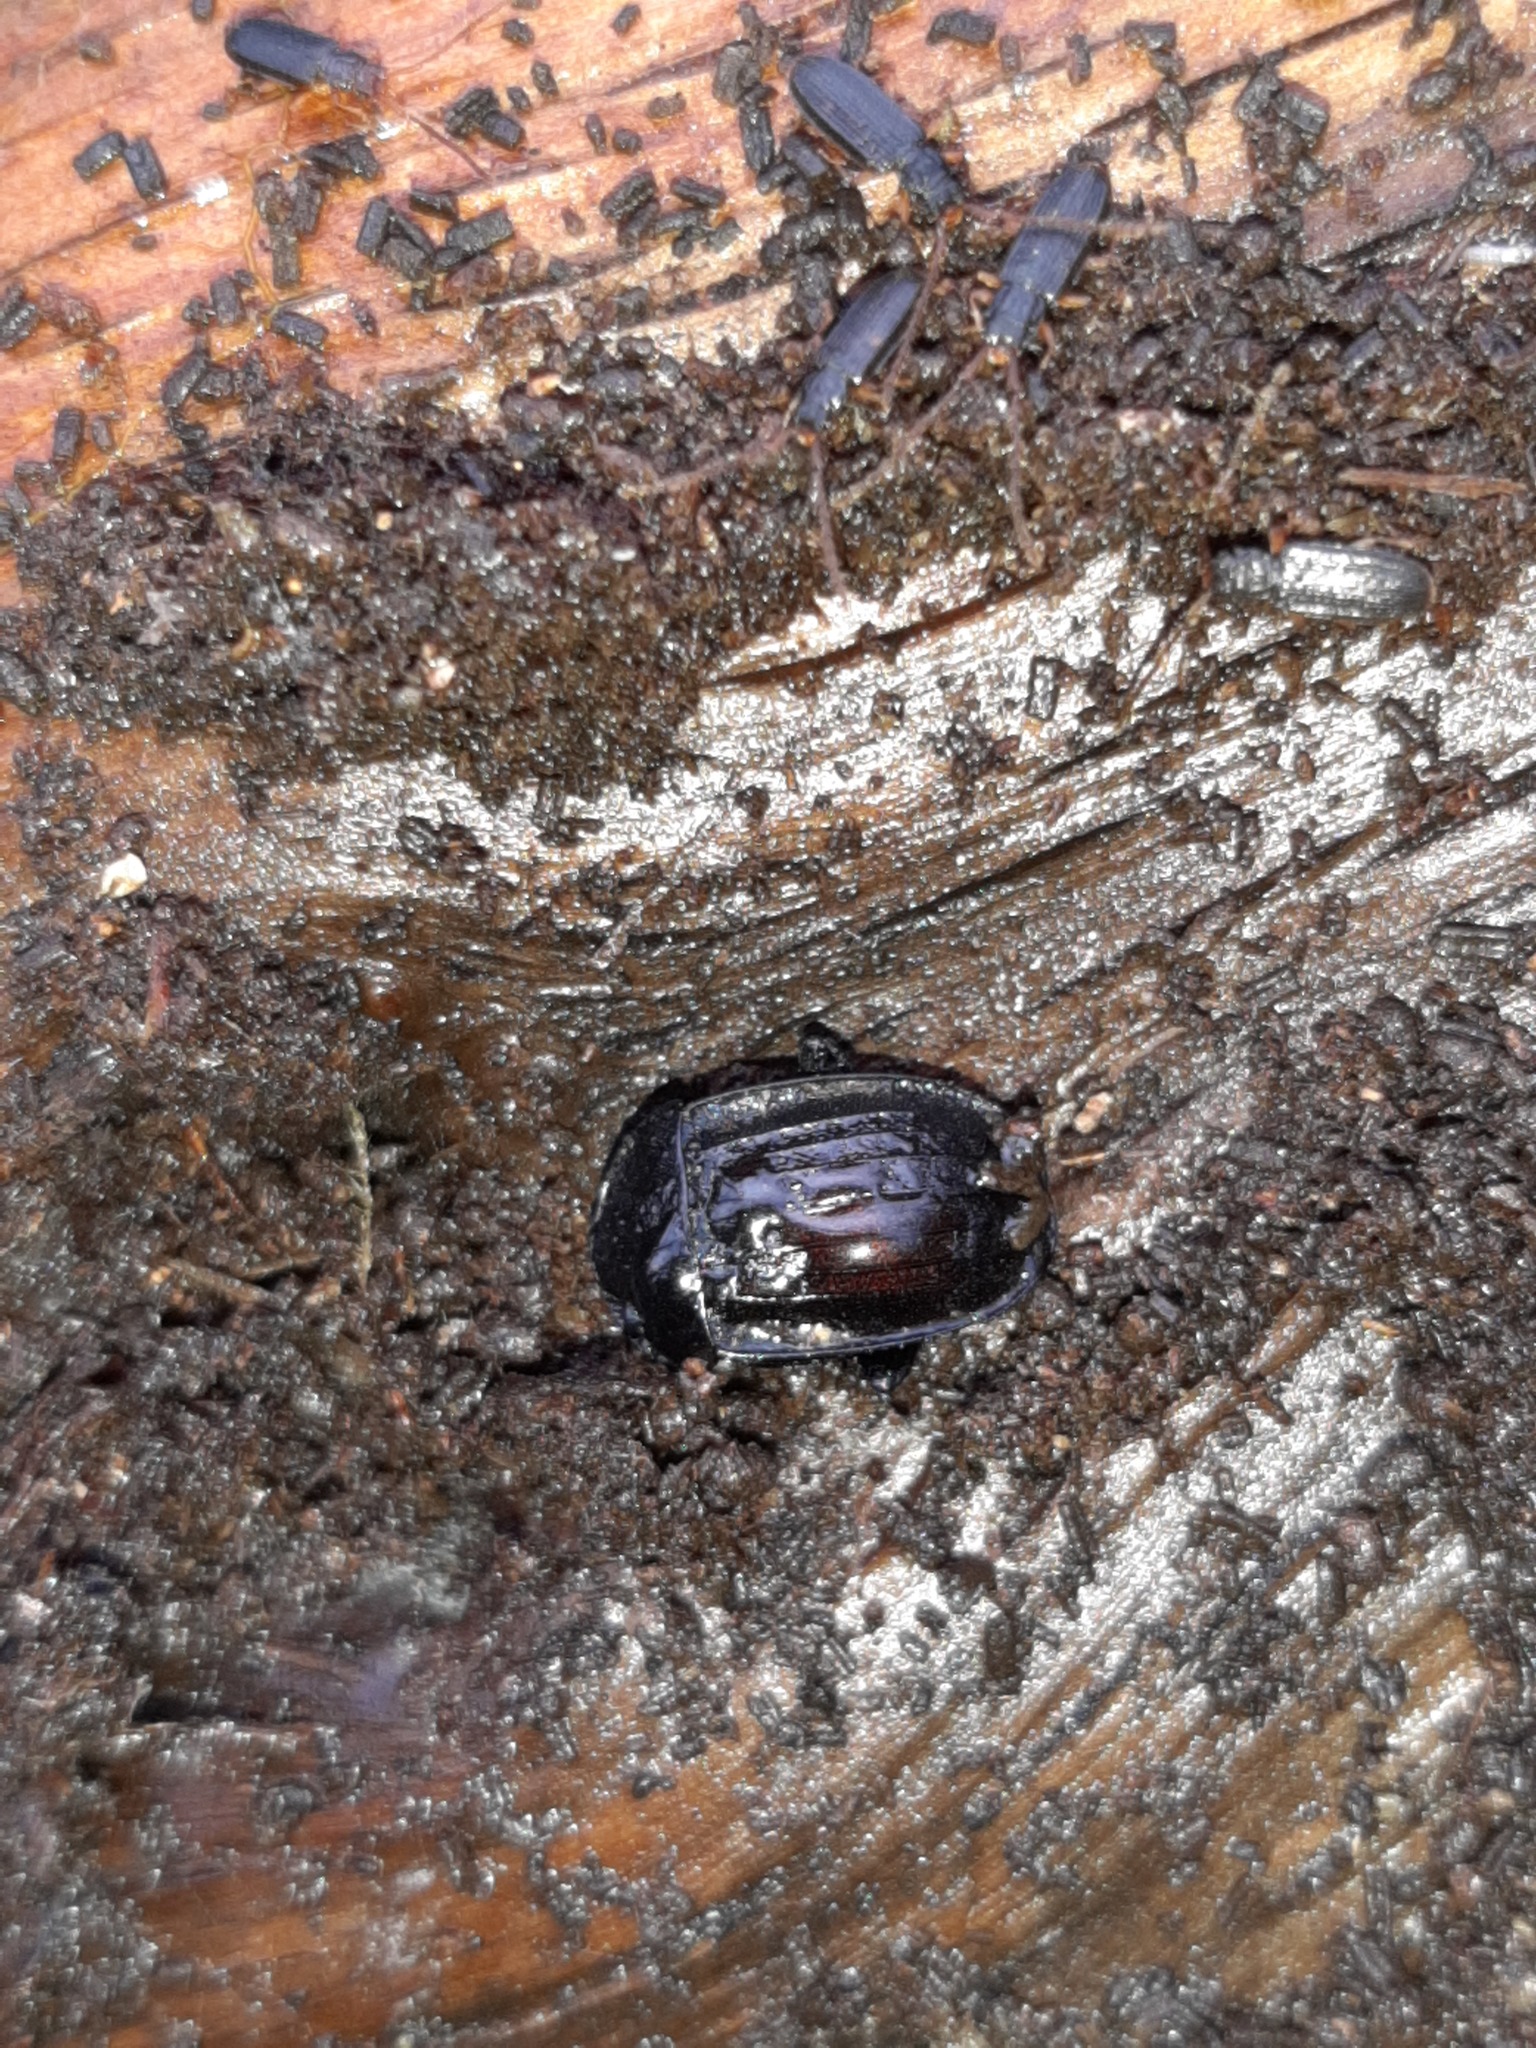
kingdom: Animalia
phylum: Arthropoda
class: Insecta
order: Coleoptera
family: Staphylinidae
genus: Silpha
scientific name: Silpha atrata
